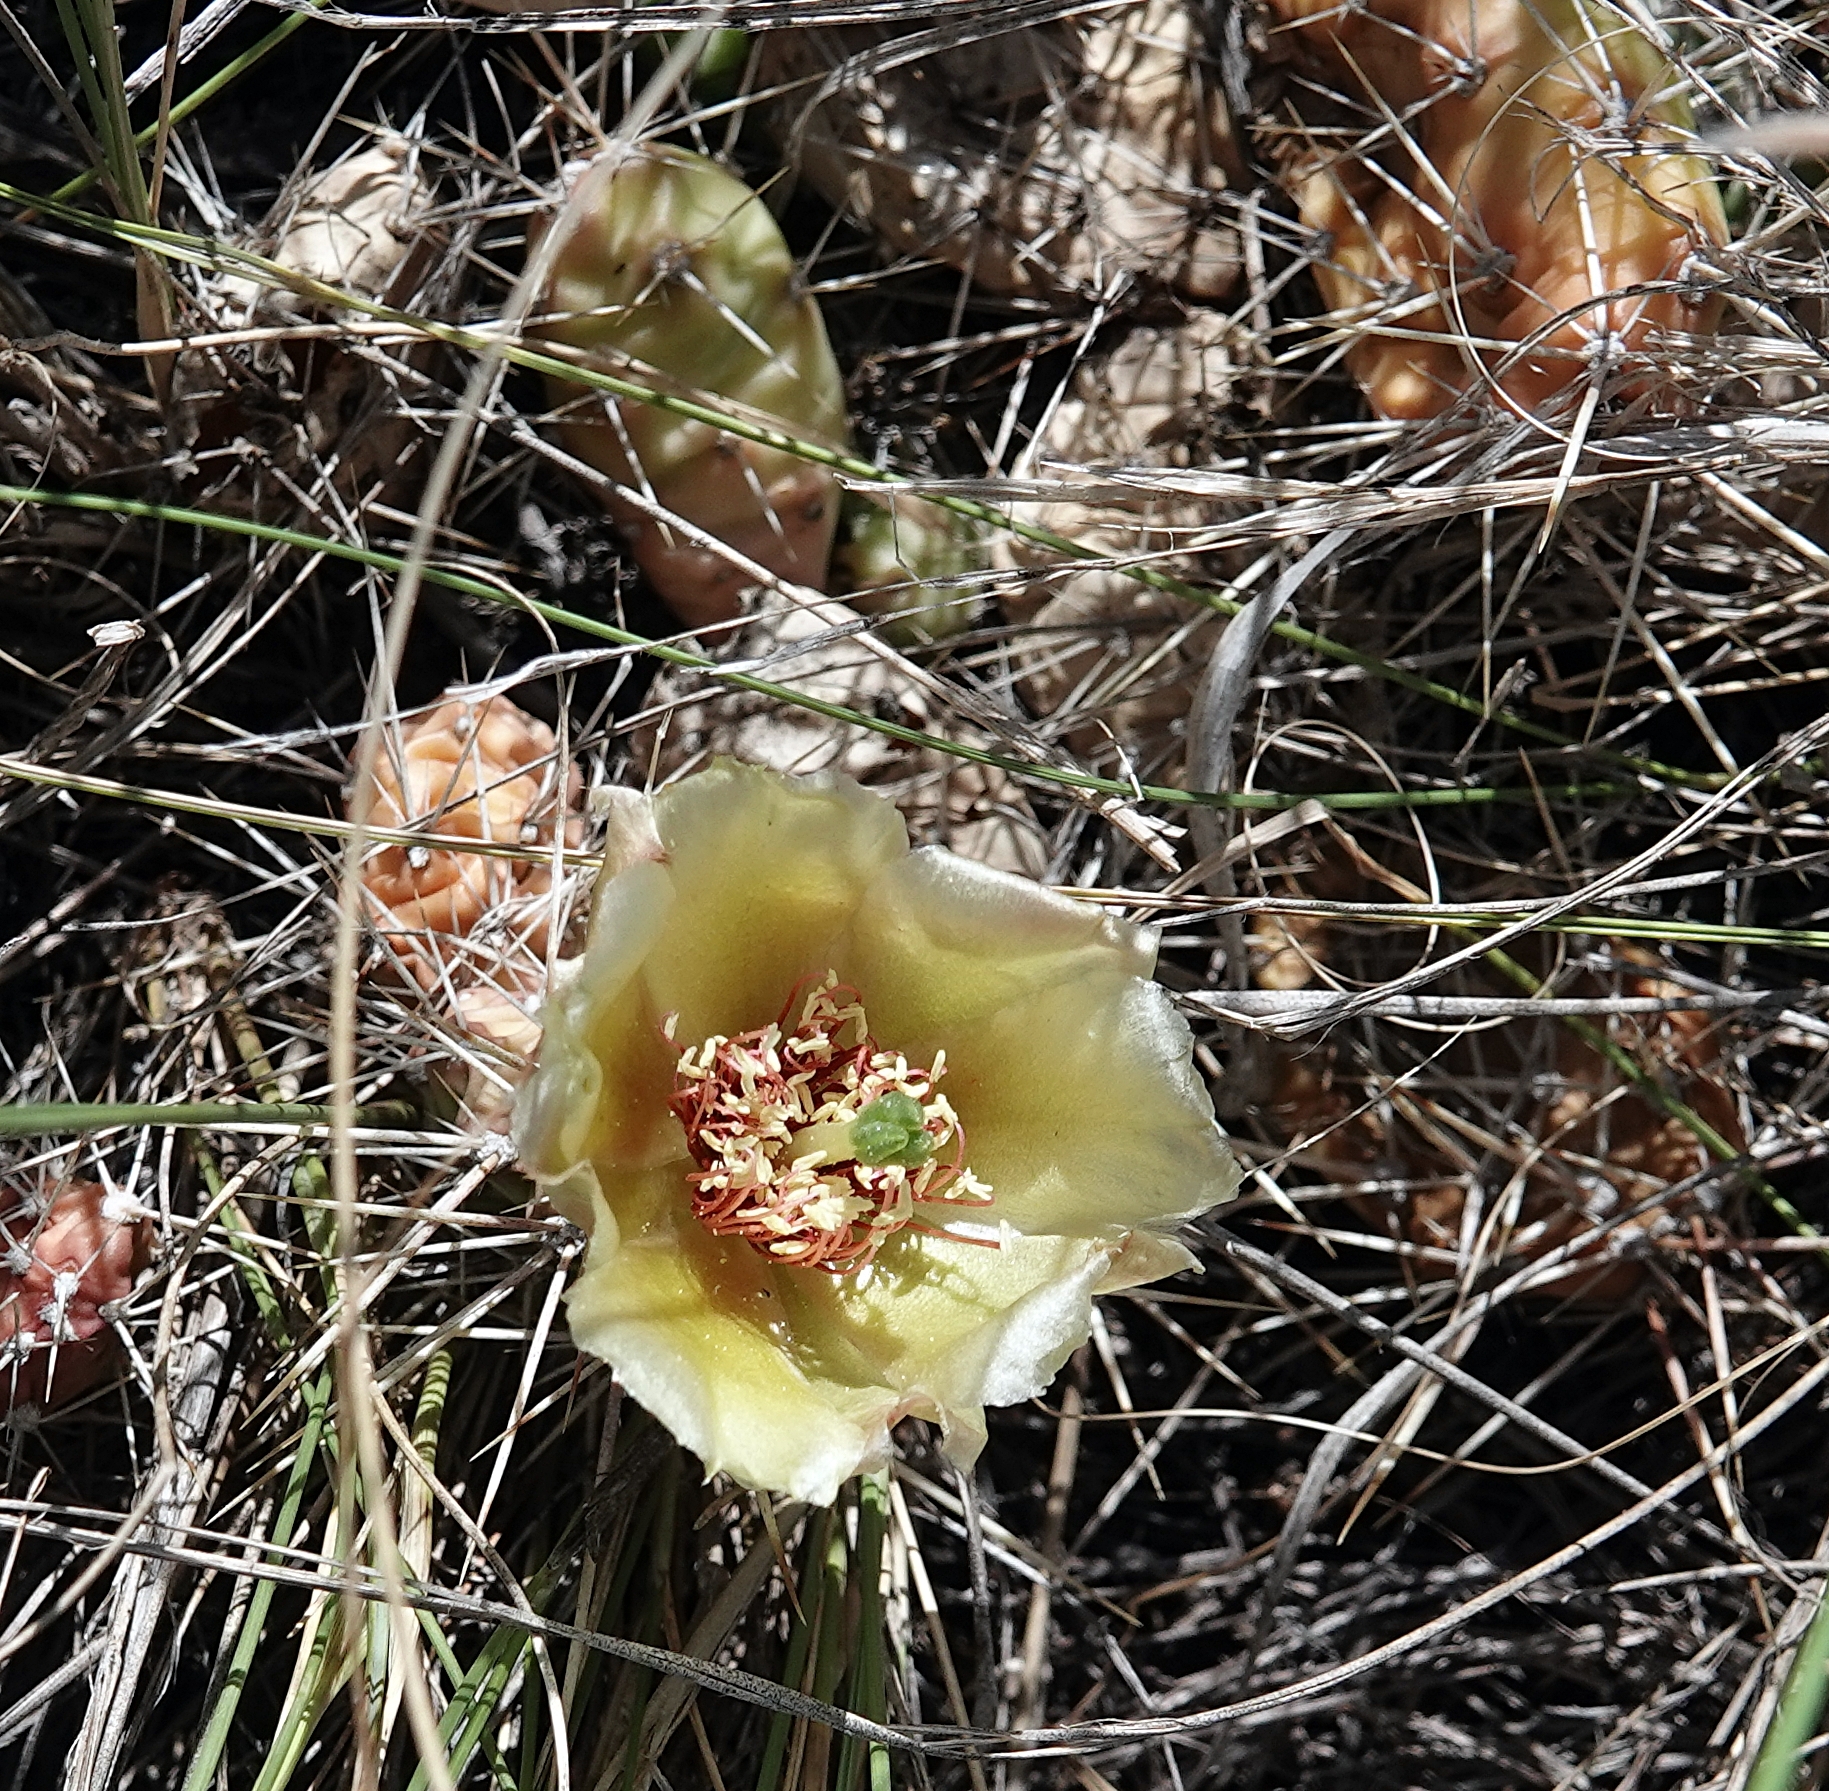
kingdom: Plantae
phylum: Tracheophyta
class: Magnoliopsida
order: Caryophyllales
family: Cactaceae
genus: Opuntia
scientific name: Opuntia fragilis
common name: Brittle cactus
